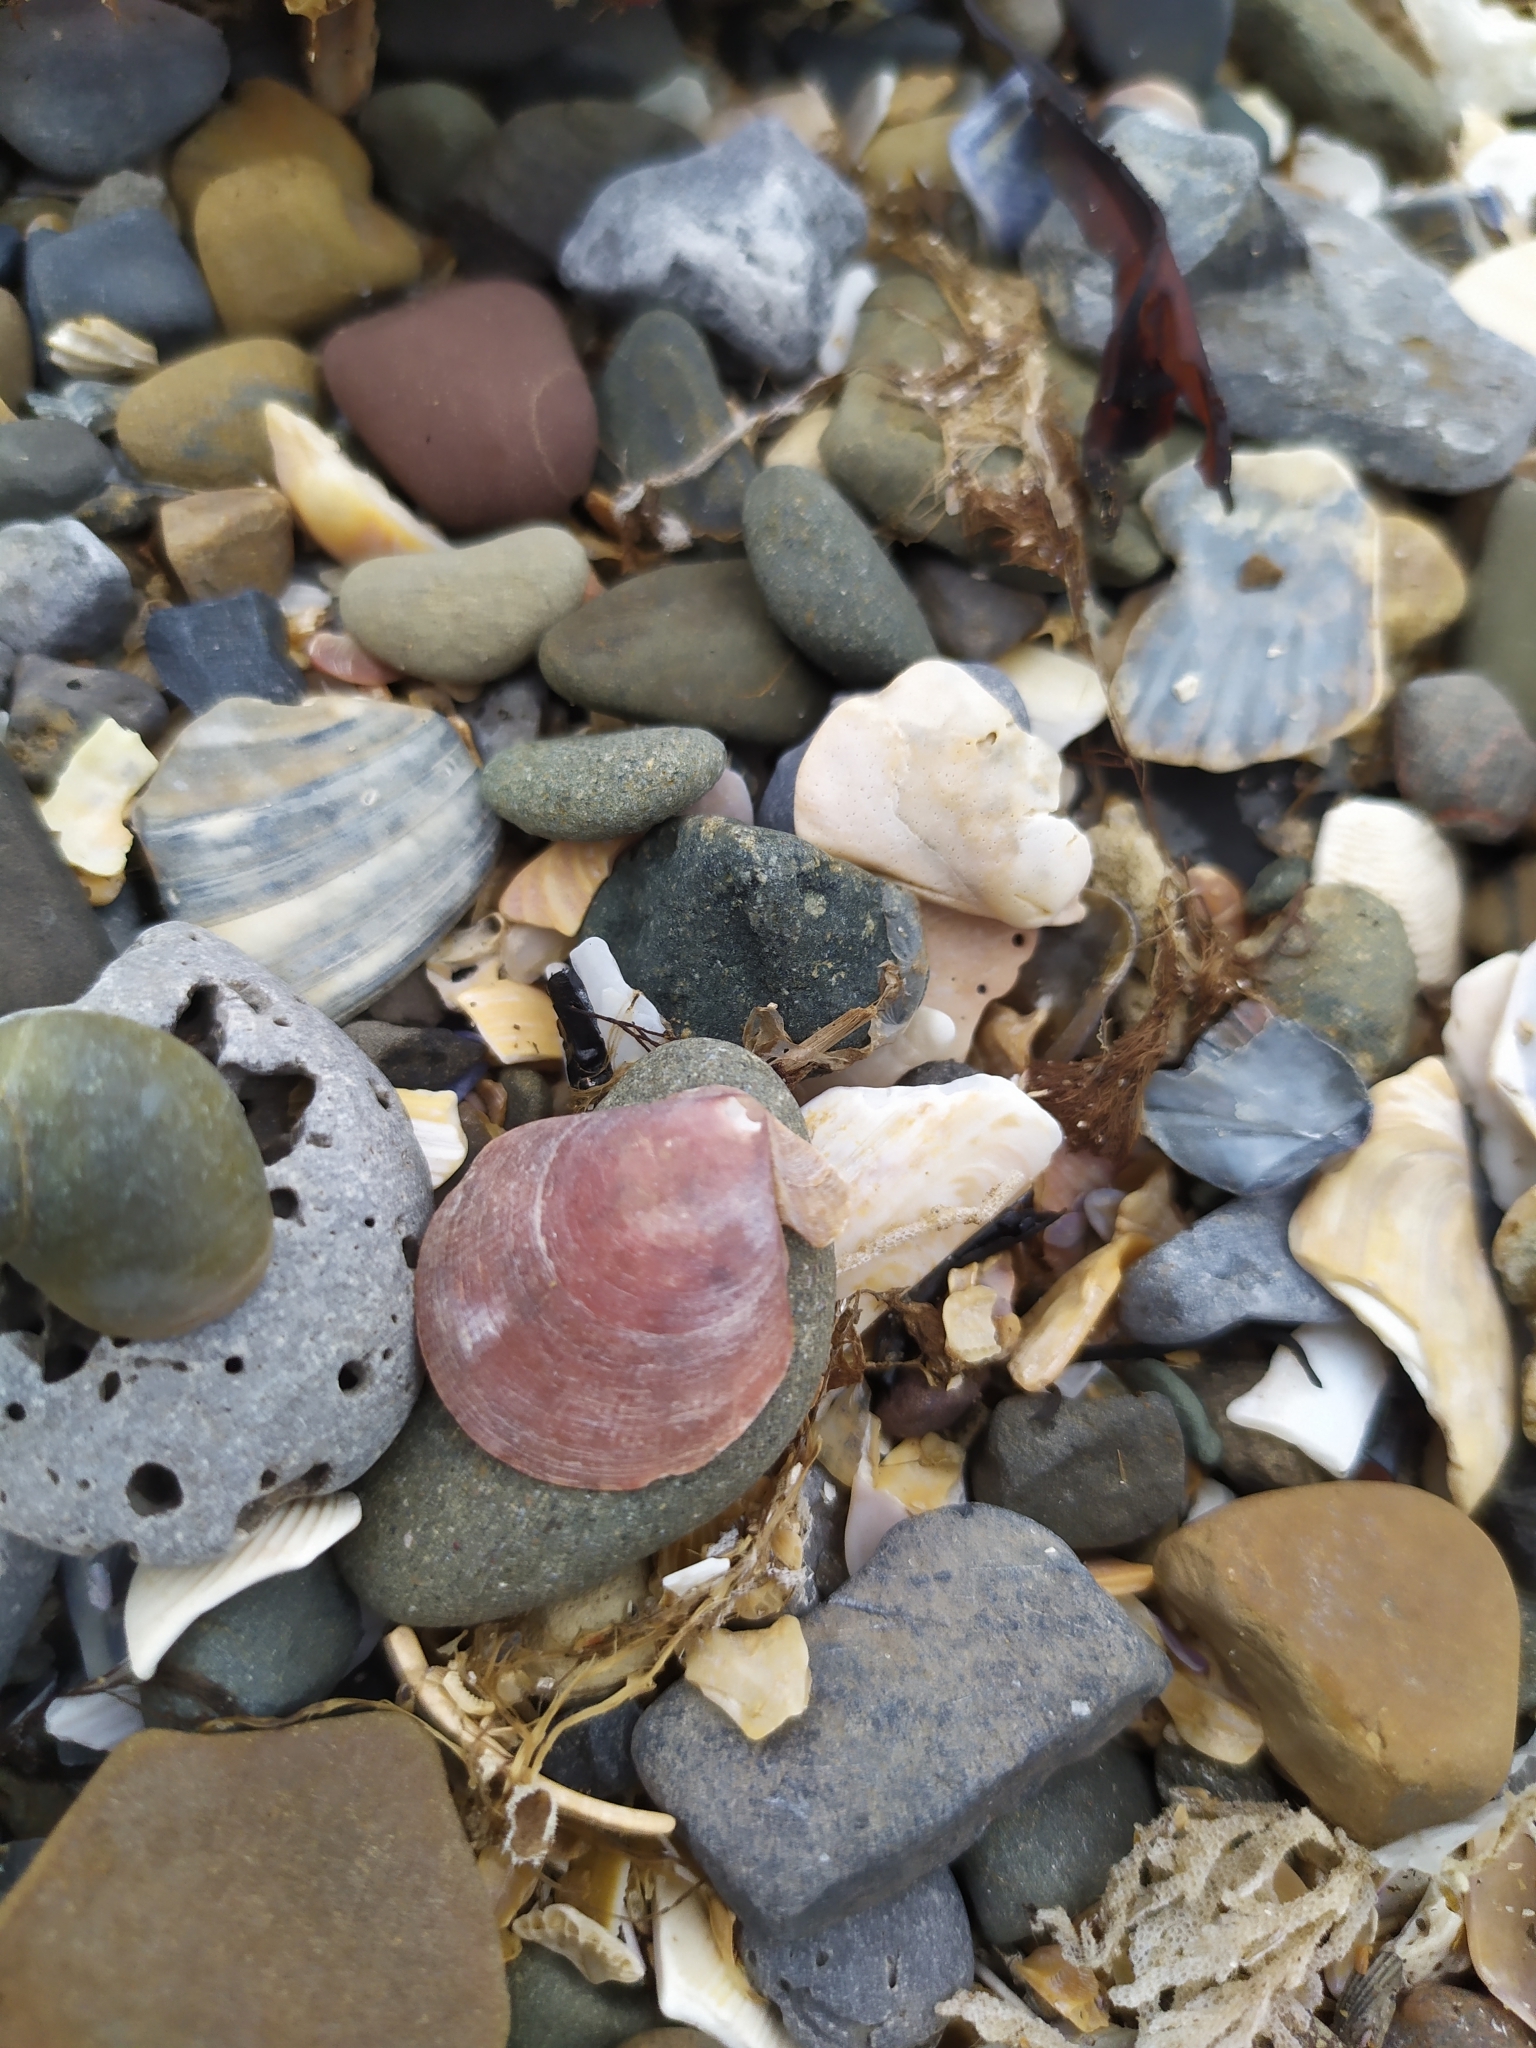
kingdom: Animalia
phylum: Mollusca
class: Bivalvia
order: Pectinida
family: Pectinidae
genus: Palliolum
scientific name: Palliolum tigerinum
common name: Tiger scallop
